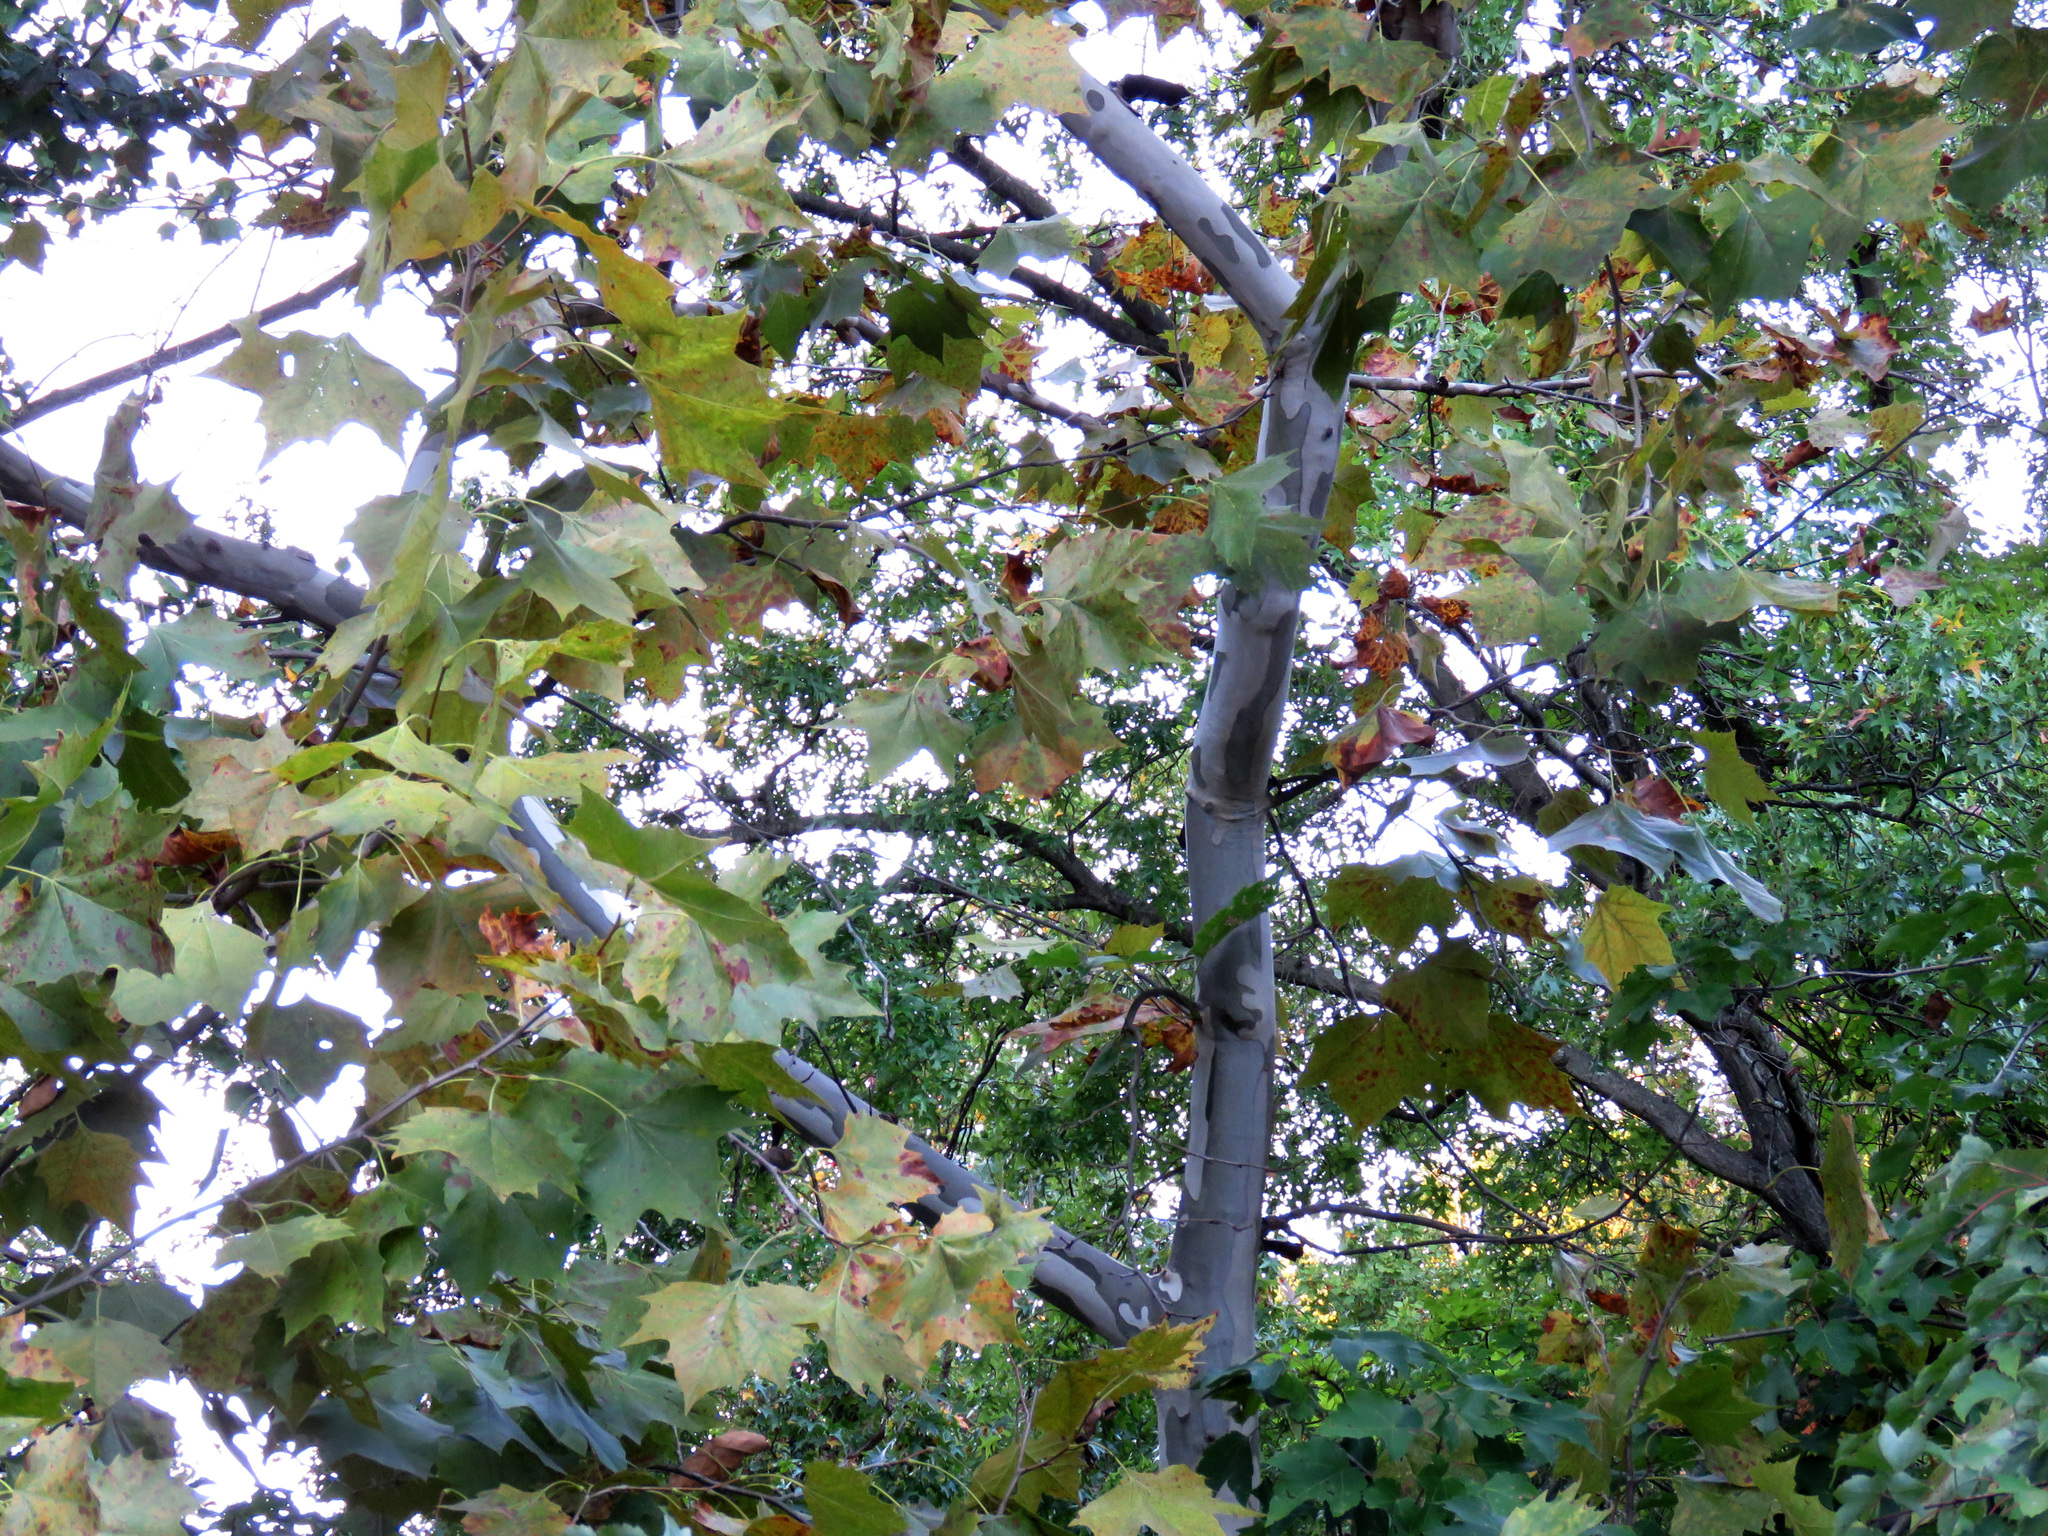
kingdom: Plantae
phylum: Tracheophyta
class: Magnoliopsida
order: Proteales
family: Platanaceae
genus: Platanus
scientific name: Platanus occidentalis
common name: American sycamore
